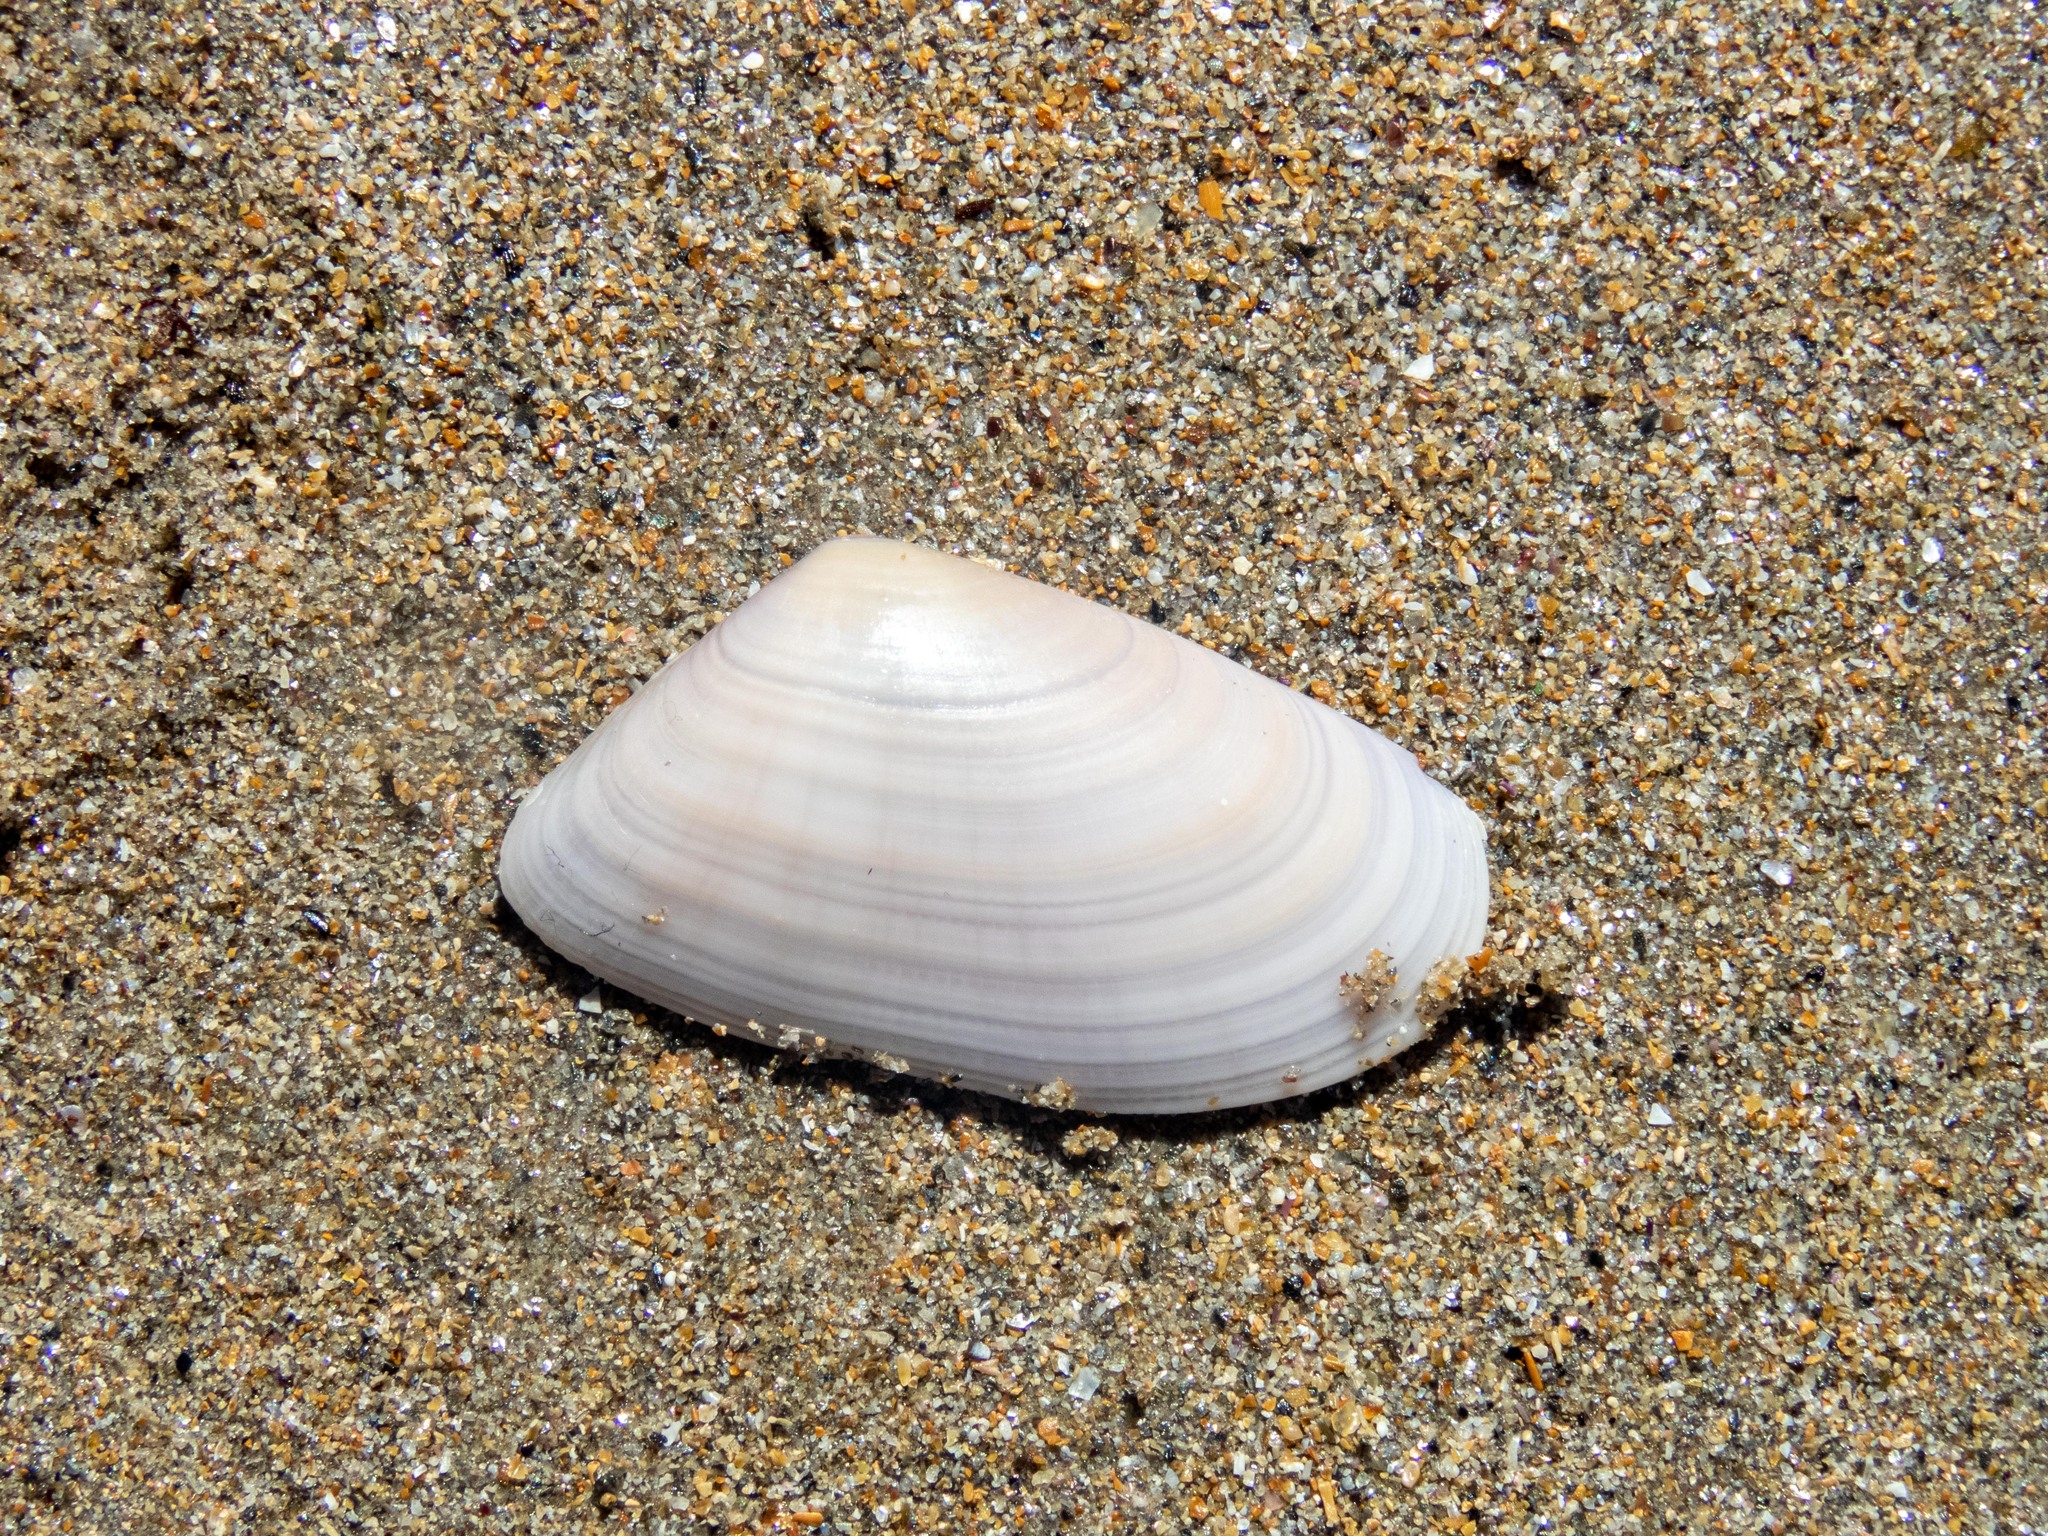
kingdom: Animalia
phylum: Mollusca
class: Bivalvia
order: Cardiida
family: Donacidae
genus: Donax
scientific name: Donax trunculus
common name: Truncate donax
